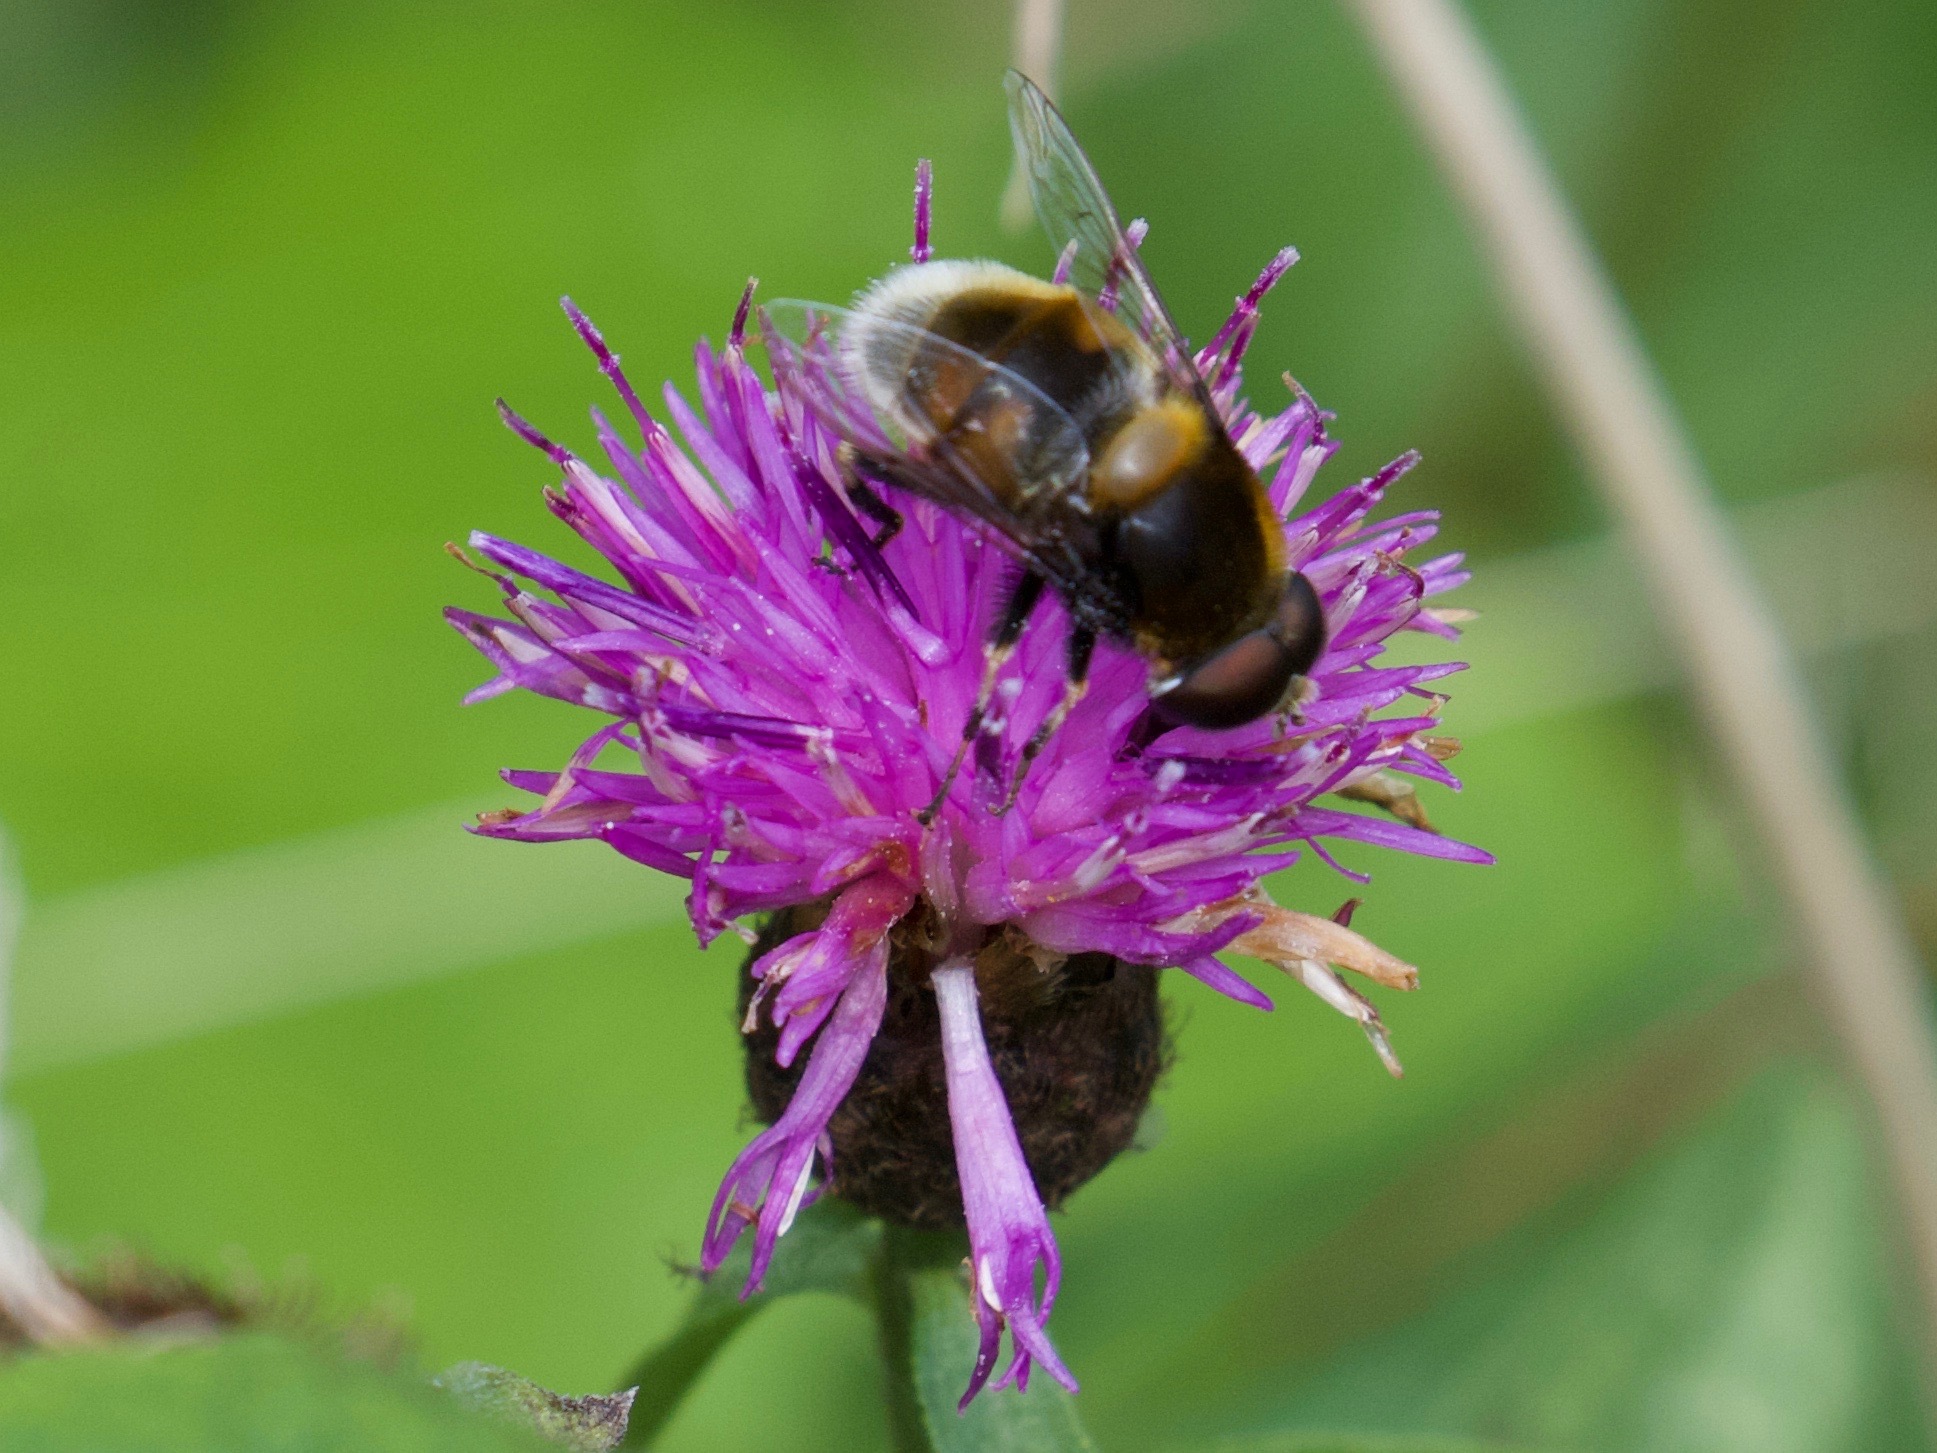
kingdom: Animalia
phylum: Arthropoda
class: Insecta
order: Diptera
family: Syrphidae
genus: Eristalis
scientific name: Eristalis intricaria
